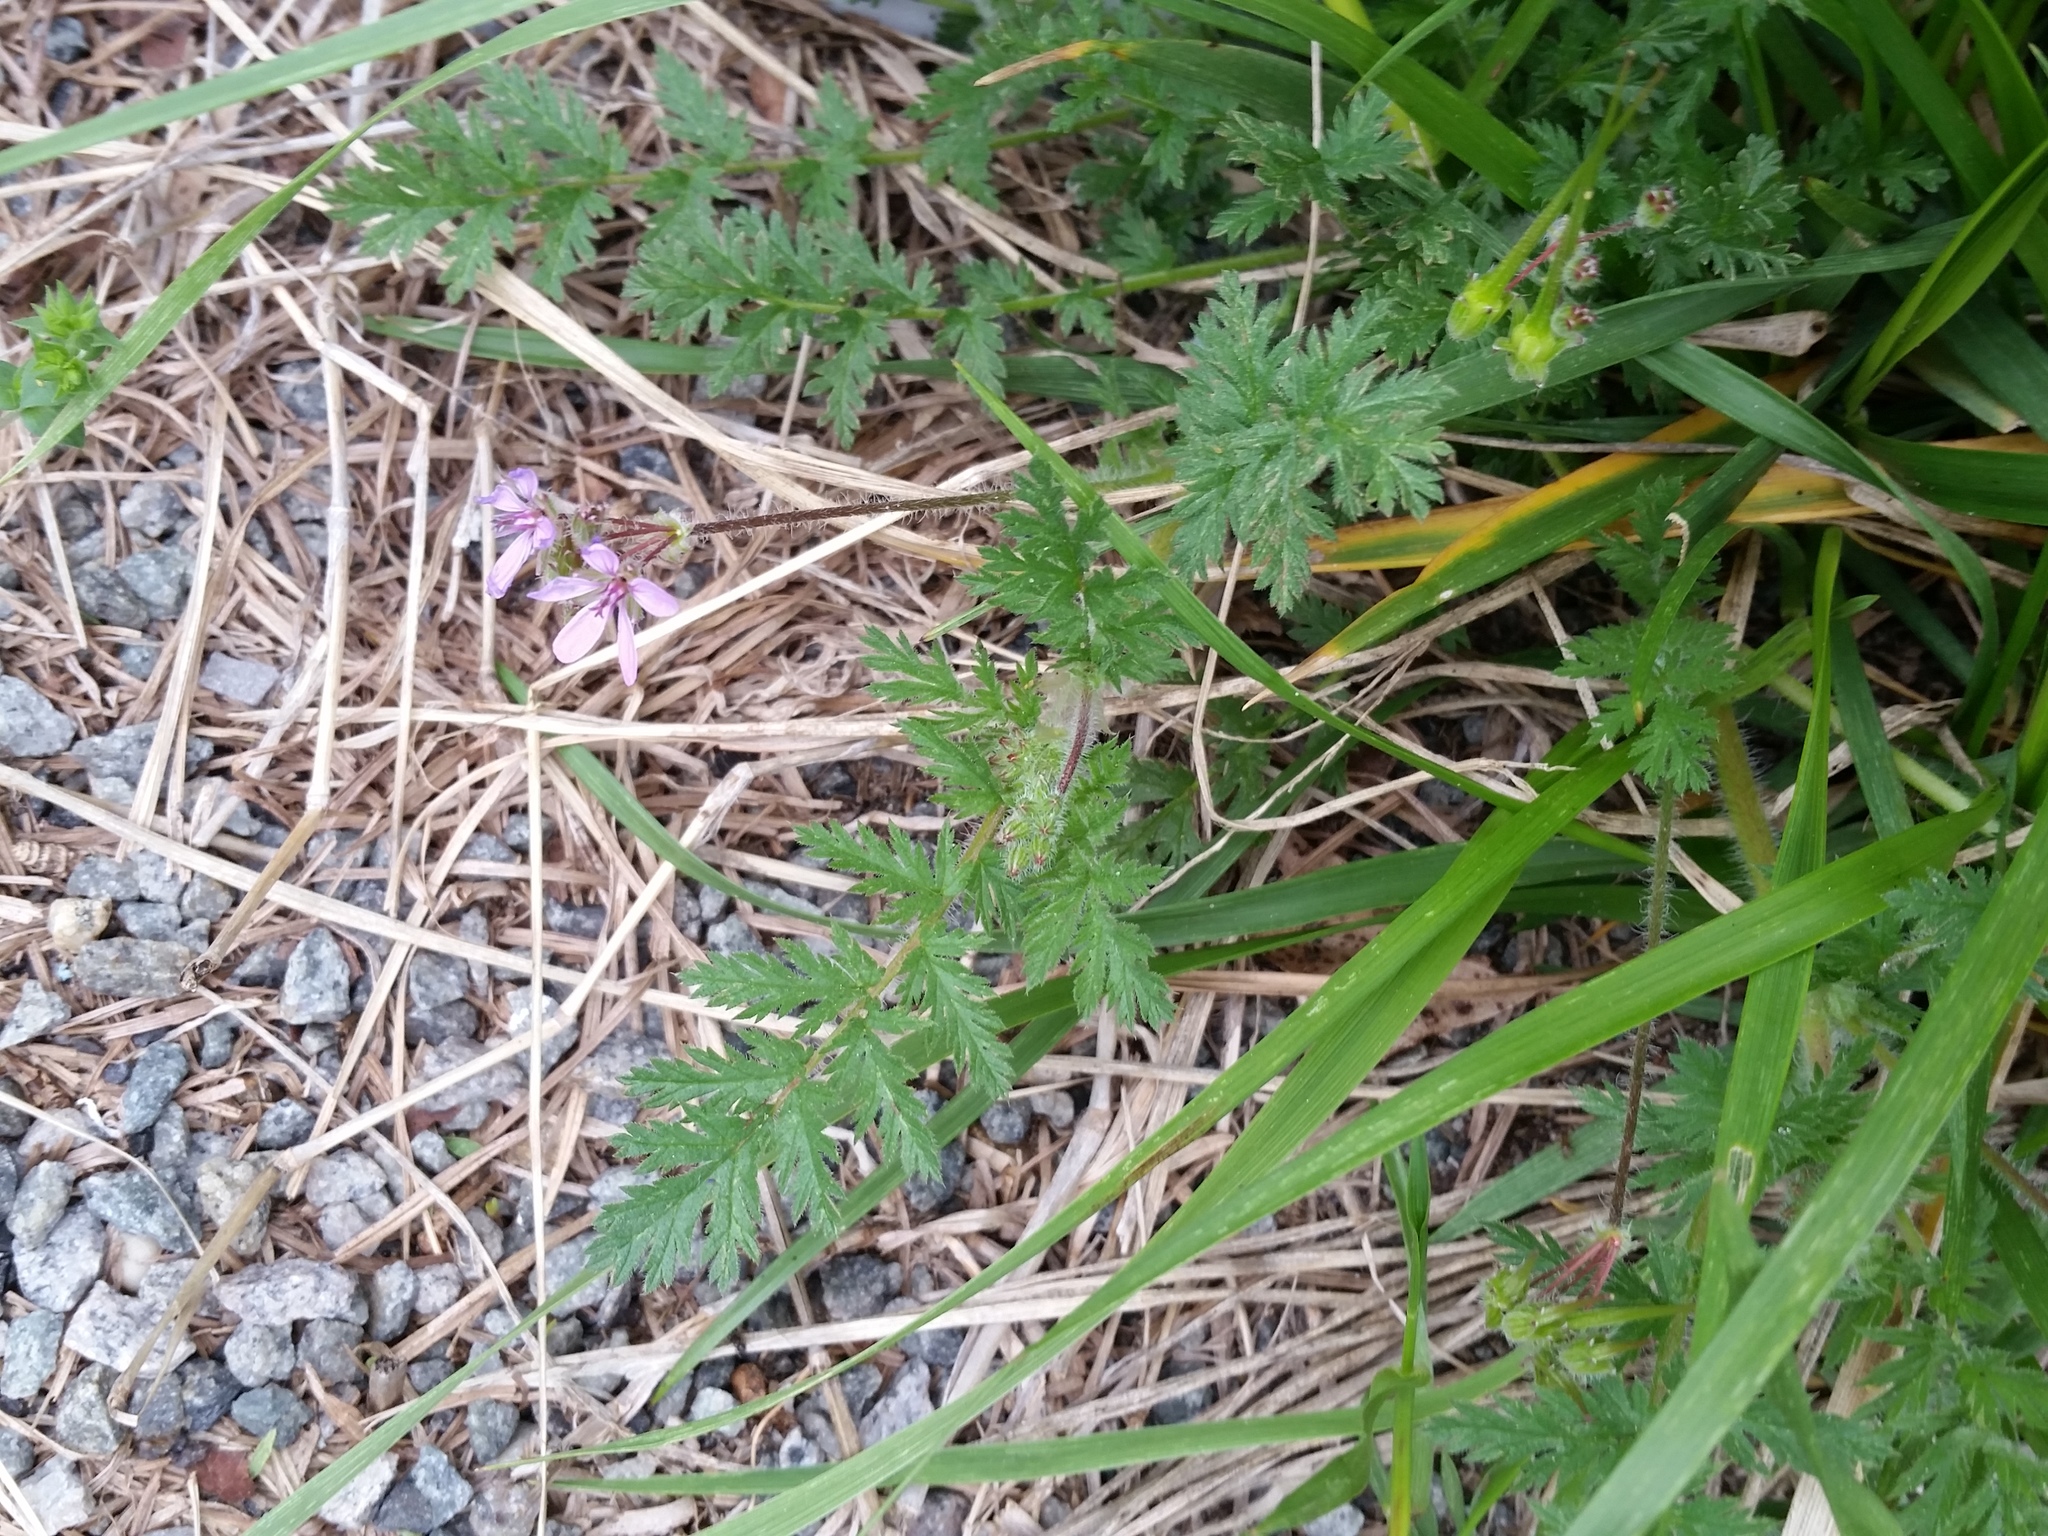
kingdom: Plantae
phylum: Tracheophyta
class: Magnoliopsida
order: Geraniales
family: Geraniaceae
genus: Erodium
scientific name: Erodium cicutarium
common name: Common stork's-bill
